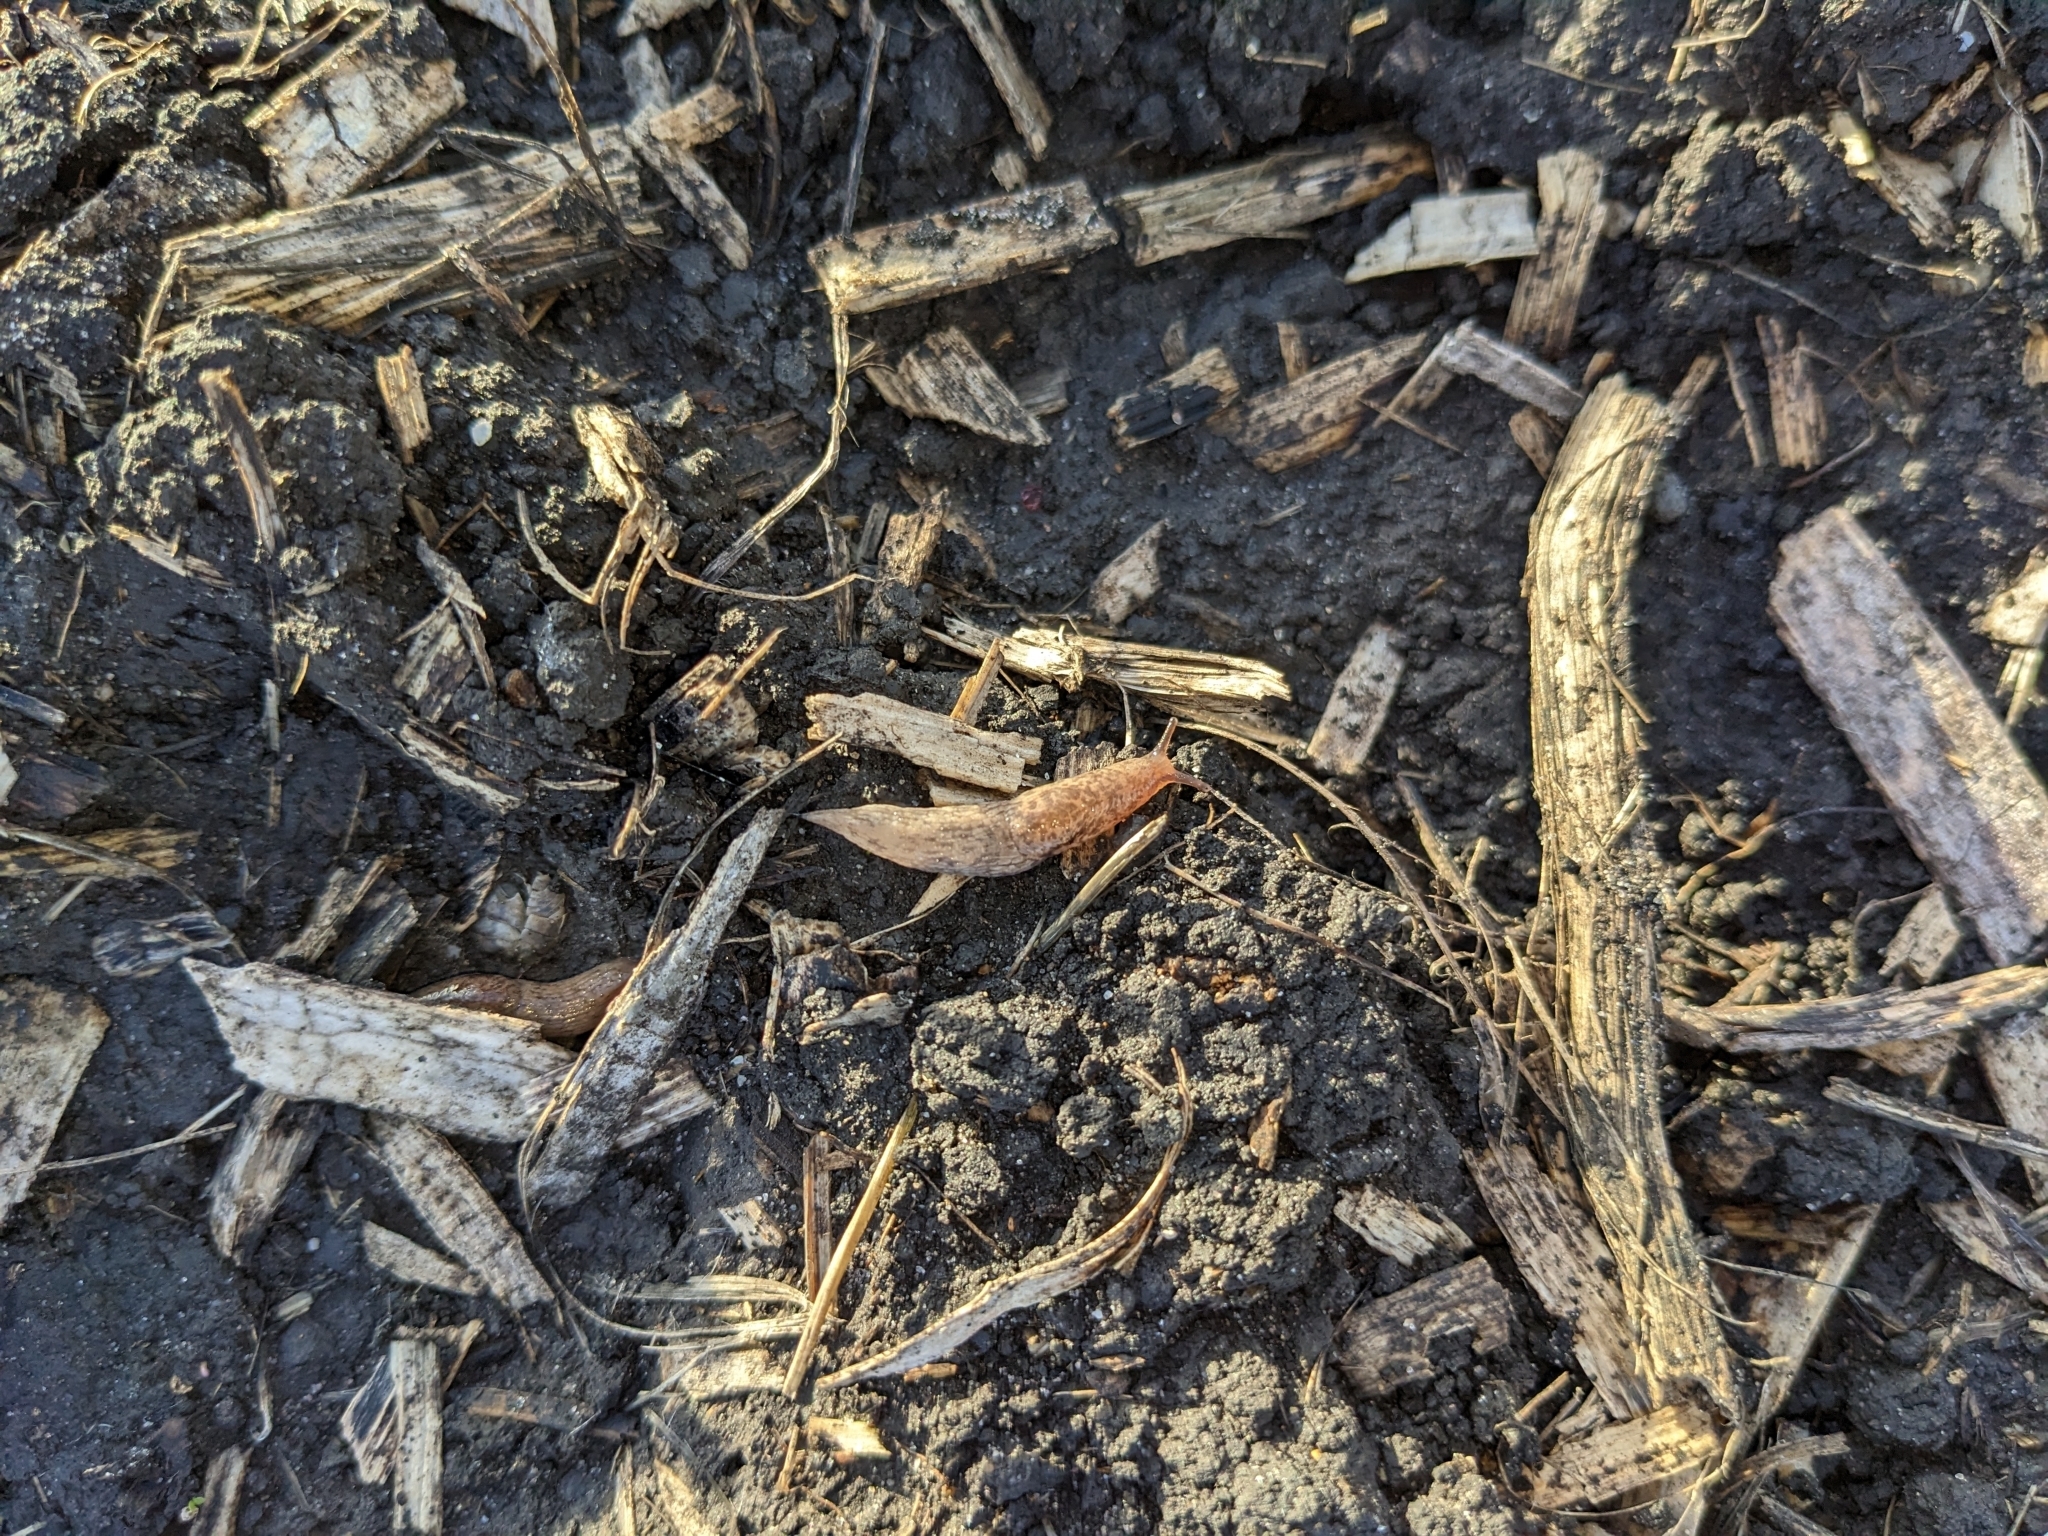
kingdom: Animalia
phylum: Mollusca
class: Gastropoda
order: Stylommatophora
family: Agriolimacidae
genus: Deroceras
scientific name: Deroceras reticulatum
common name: Gray field slug
